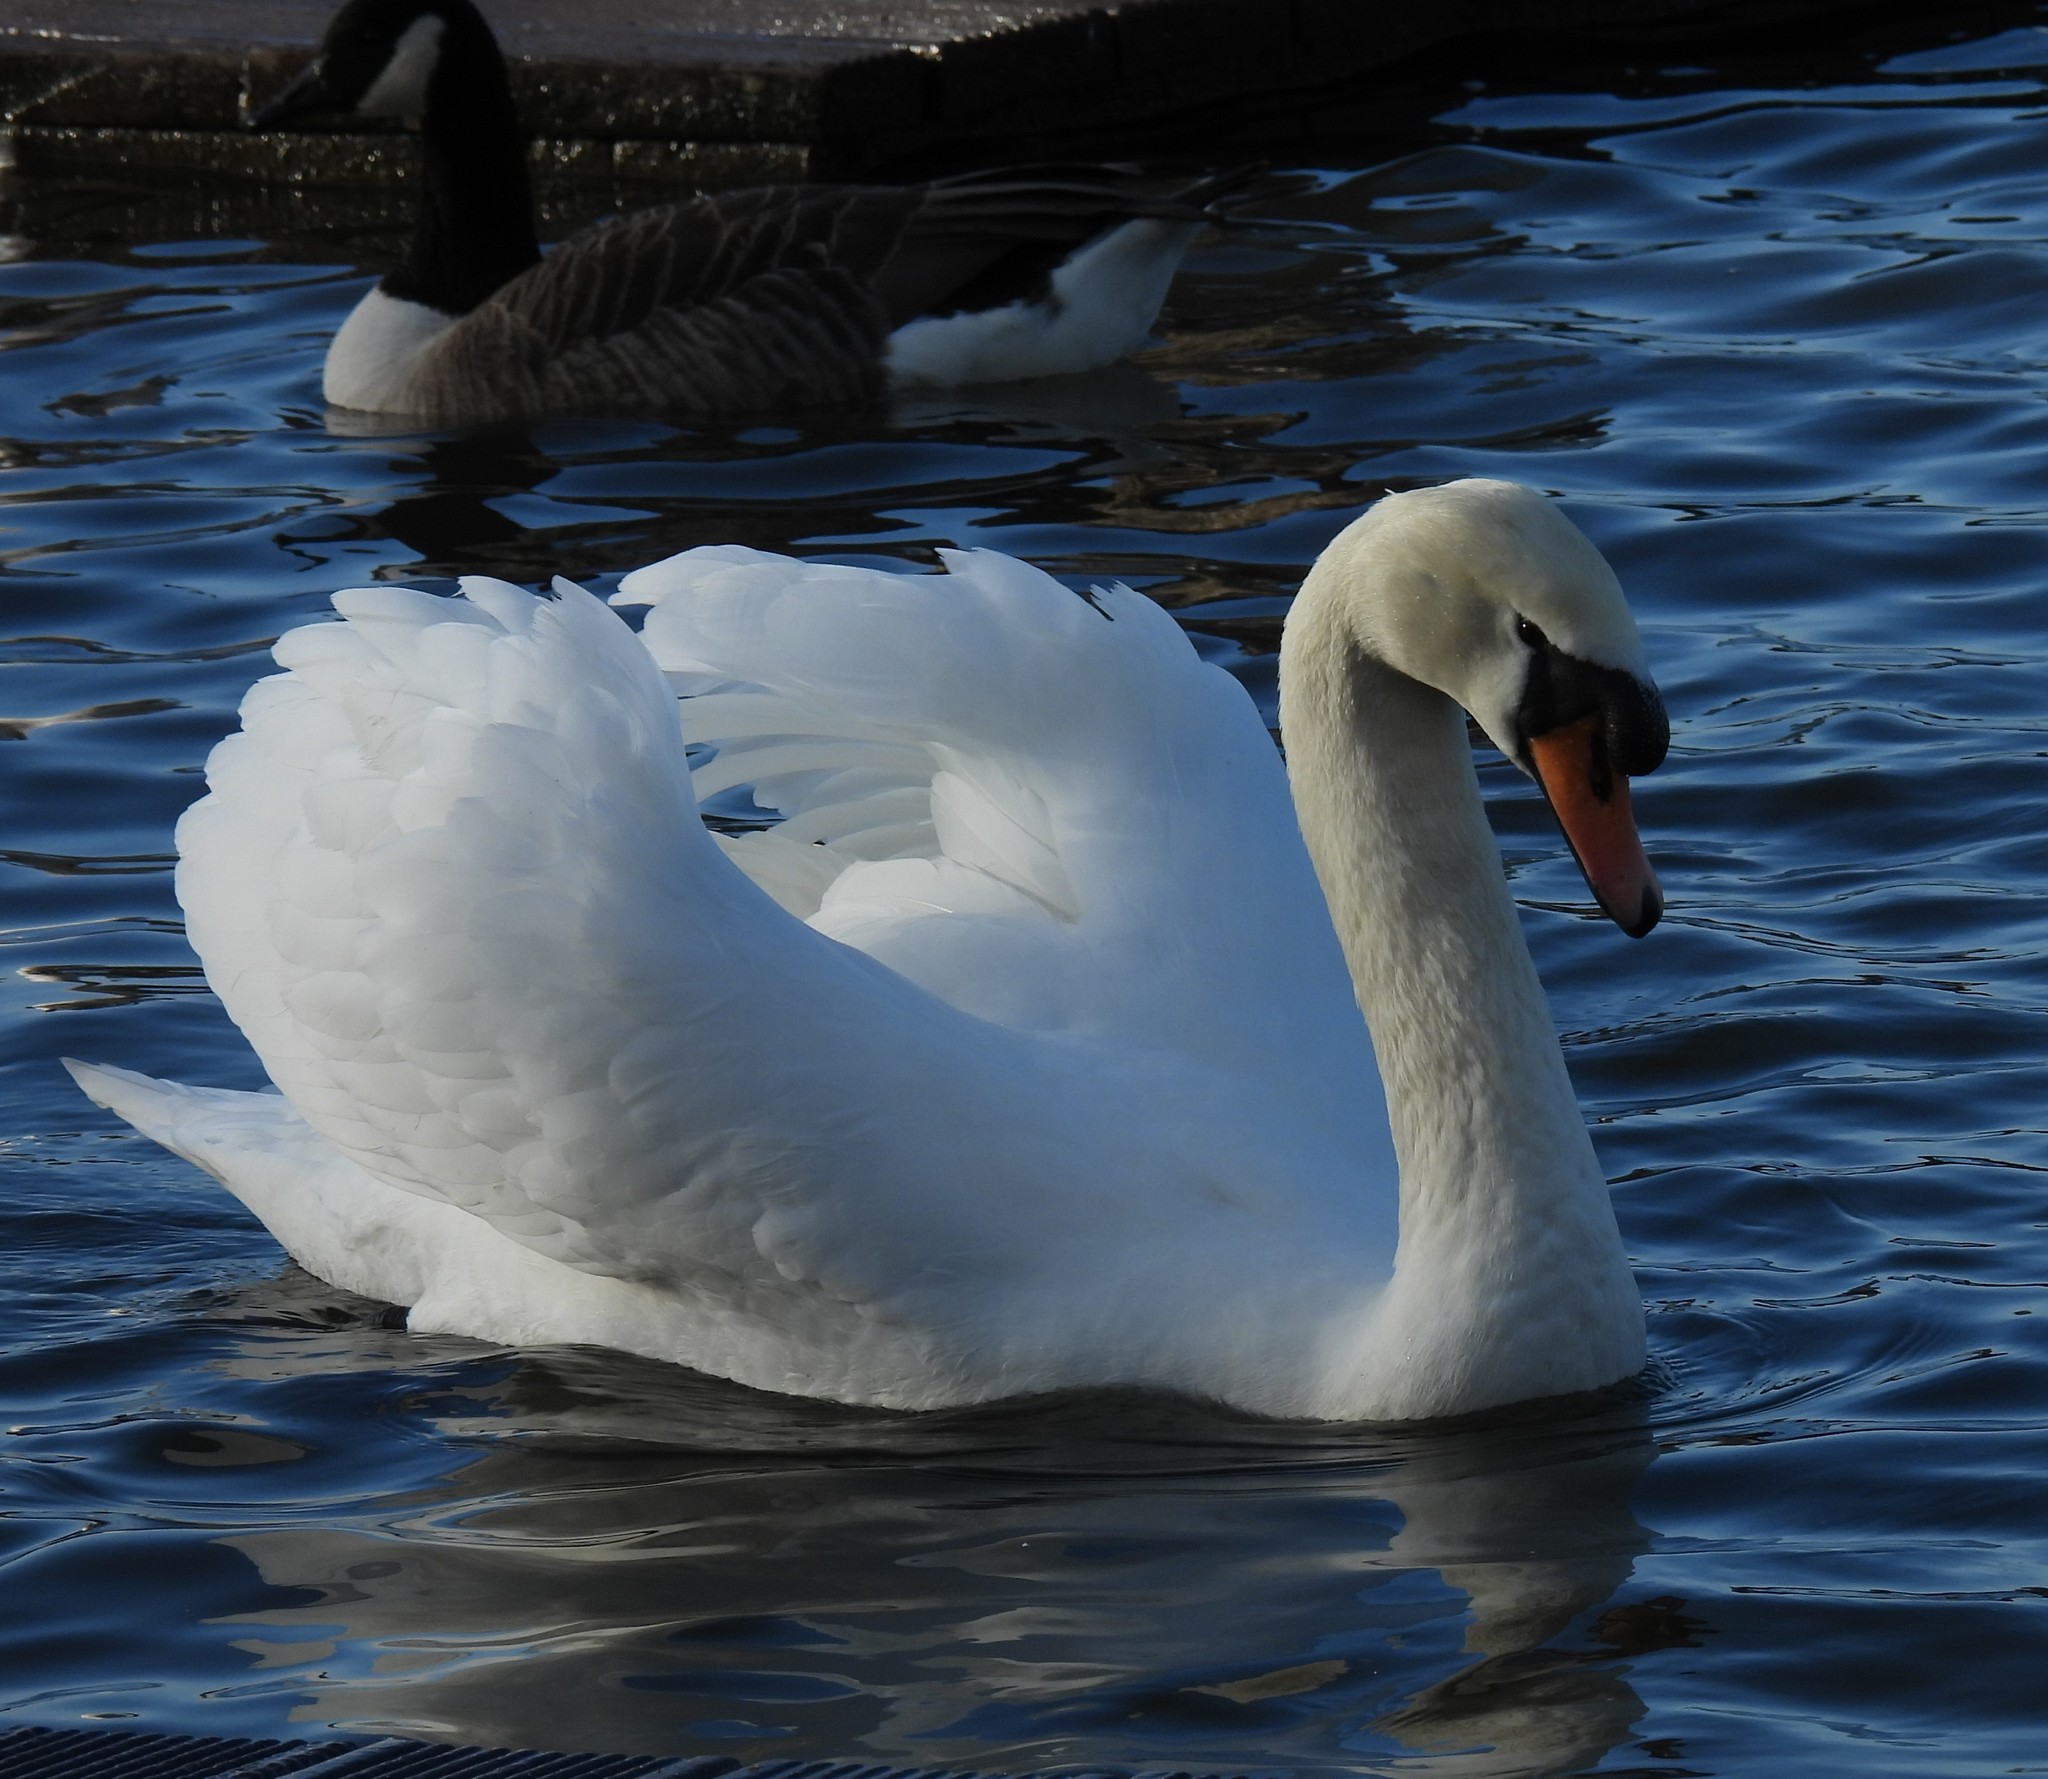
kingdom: Animalia
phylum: Chordata
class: Aves
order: Anseriformes
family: Anatidae
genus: Cygnus
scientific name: Cygnus olor
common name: Mute swan
